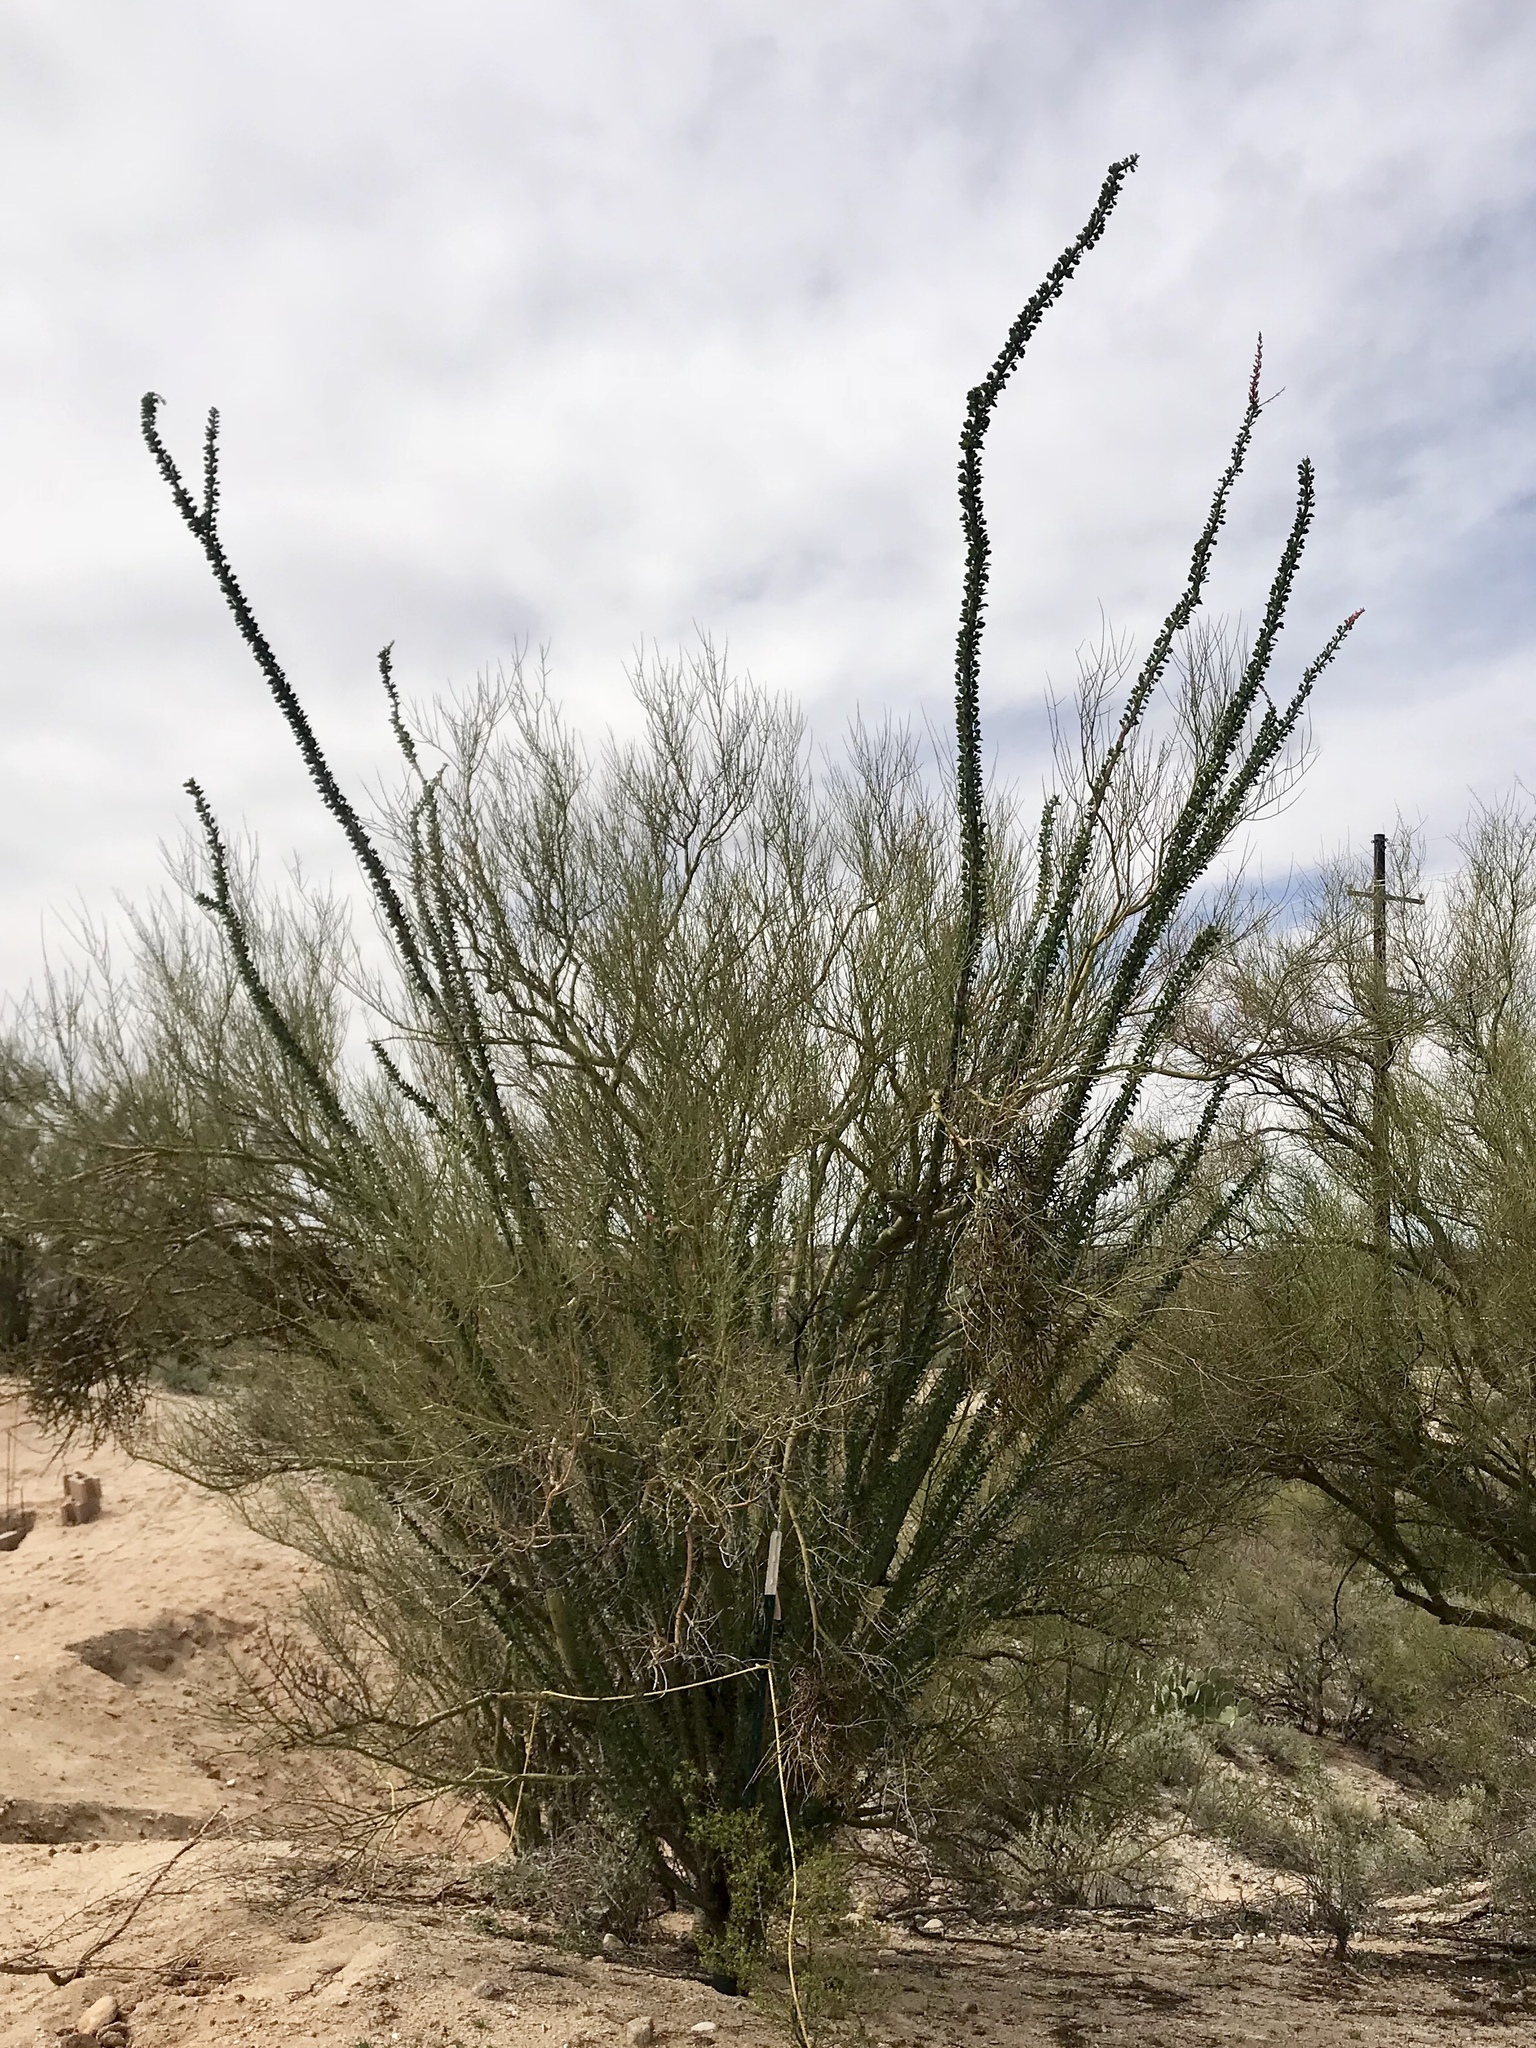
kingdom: Plantae
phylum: Tracheophyta
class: Magnoliopsida
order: Ericales
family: Fouquieriaceae
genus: Fouquieria
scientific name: Fouquieria splendens
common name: Vine-cactus
